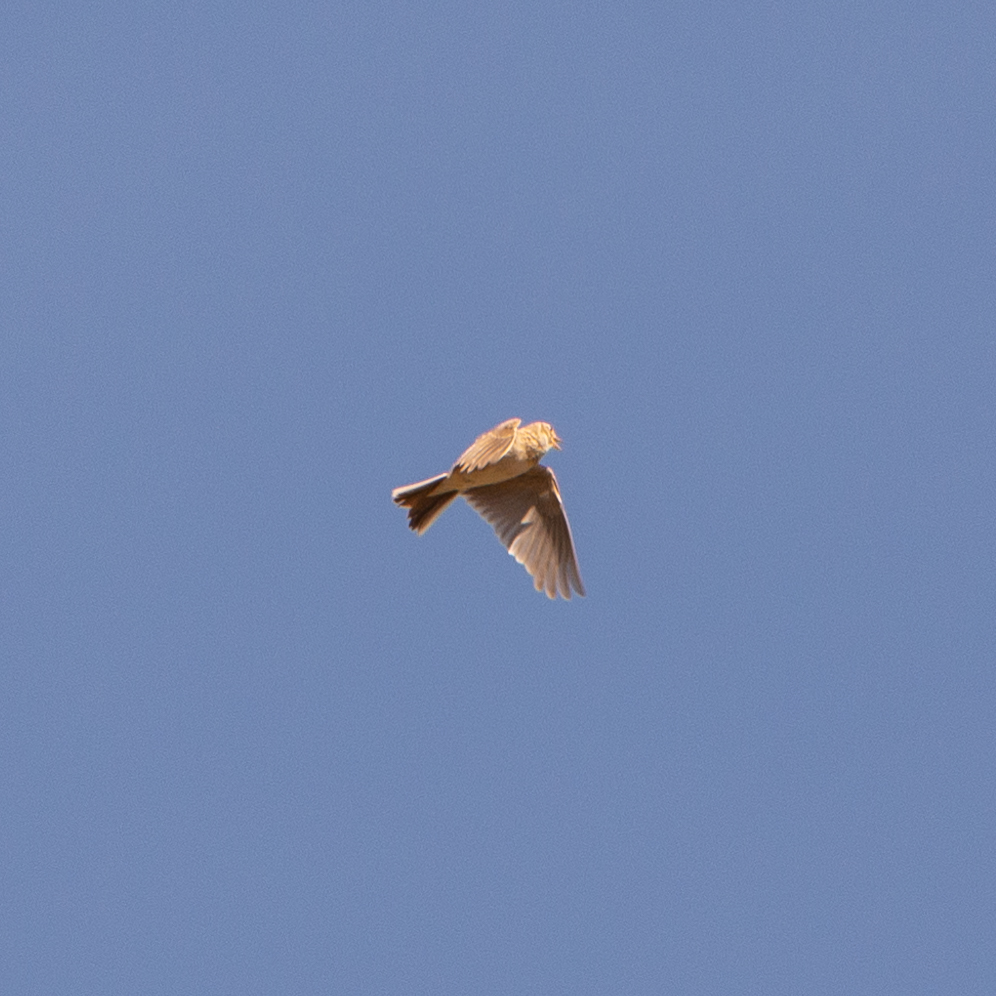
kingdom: Animalia
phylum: Chordata
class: Aves
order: Passeriformes
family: Alaudidae
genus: Alauda
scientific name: Alauda arvensis
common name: Eurasian skylark
